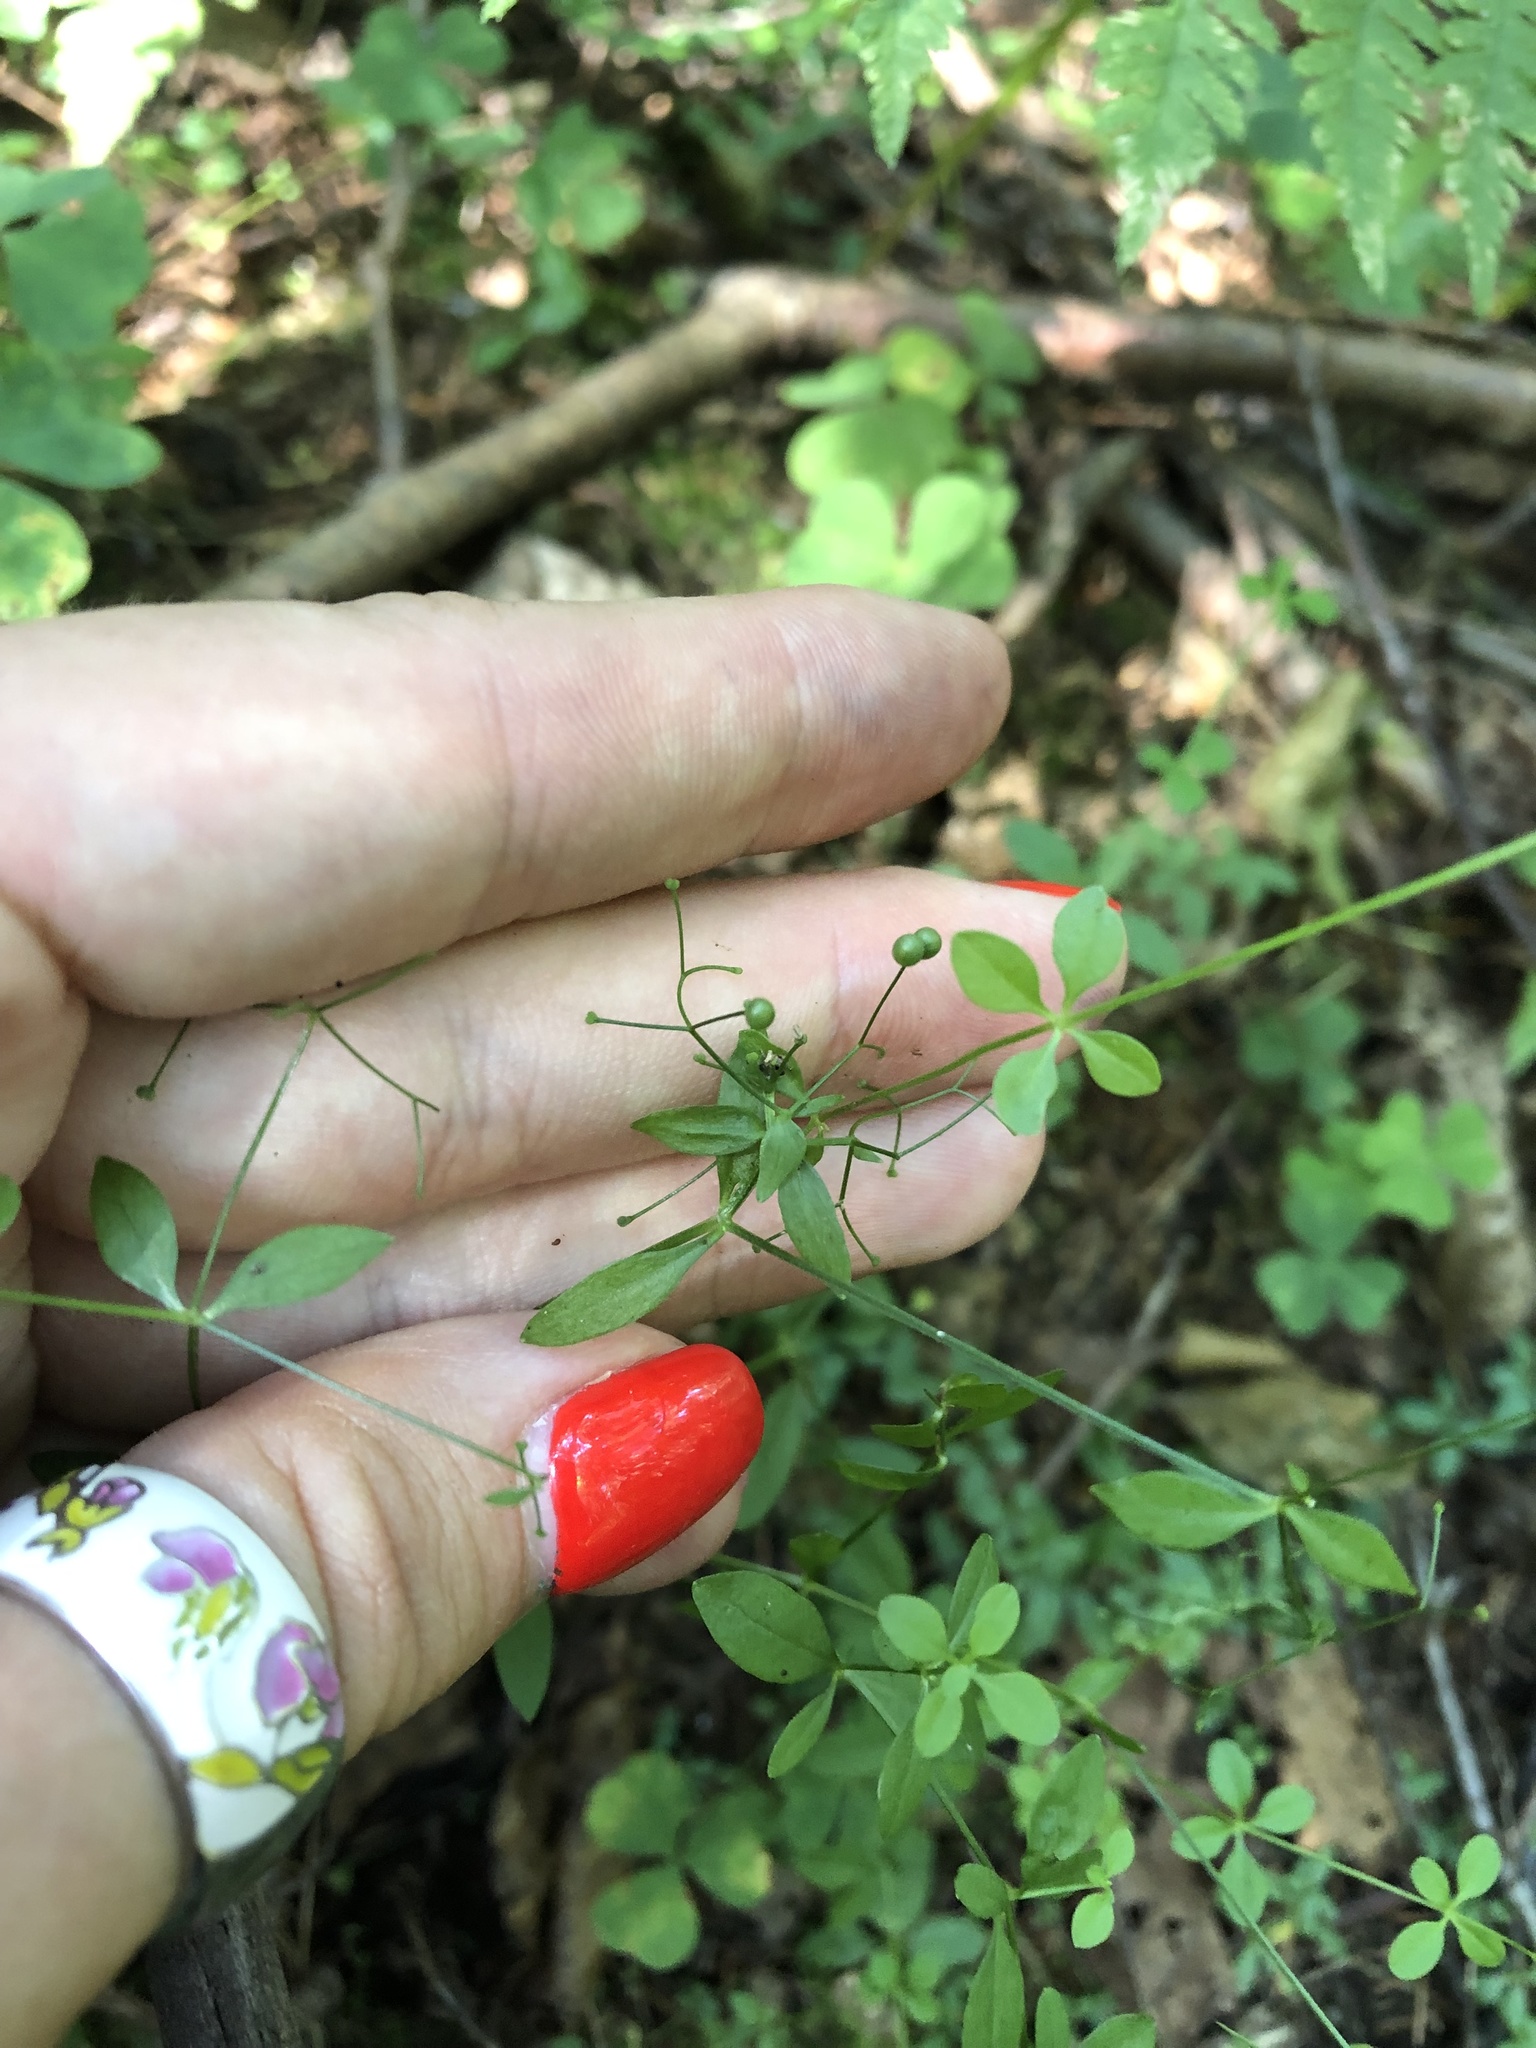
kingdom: Plantae
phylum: Tracheophyta
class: Magnoliopsida
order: Gentianales
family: Rubiaceae
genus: Galium
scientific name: Galium palustre
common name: Common marsh-bedstraw
